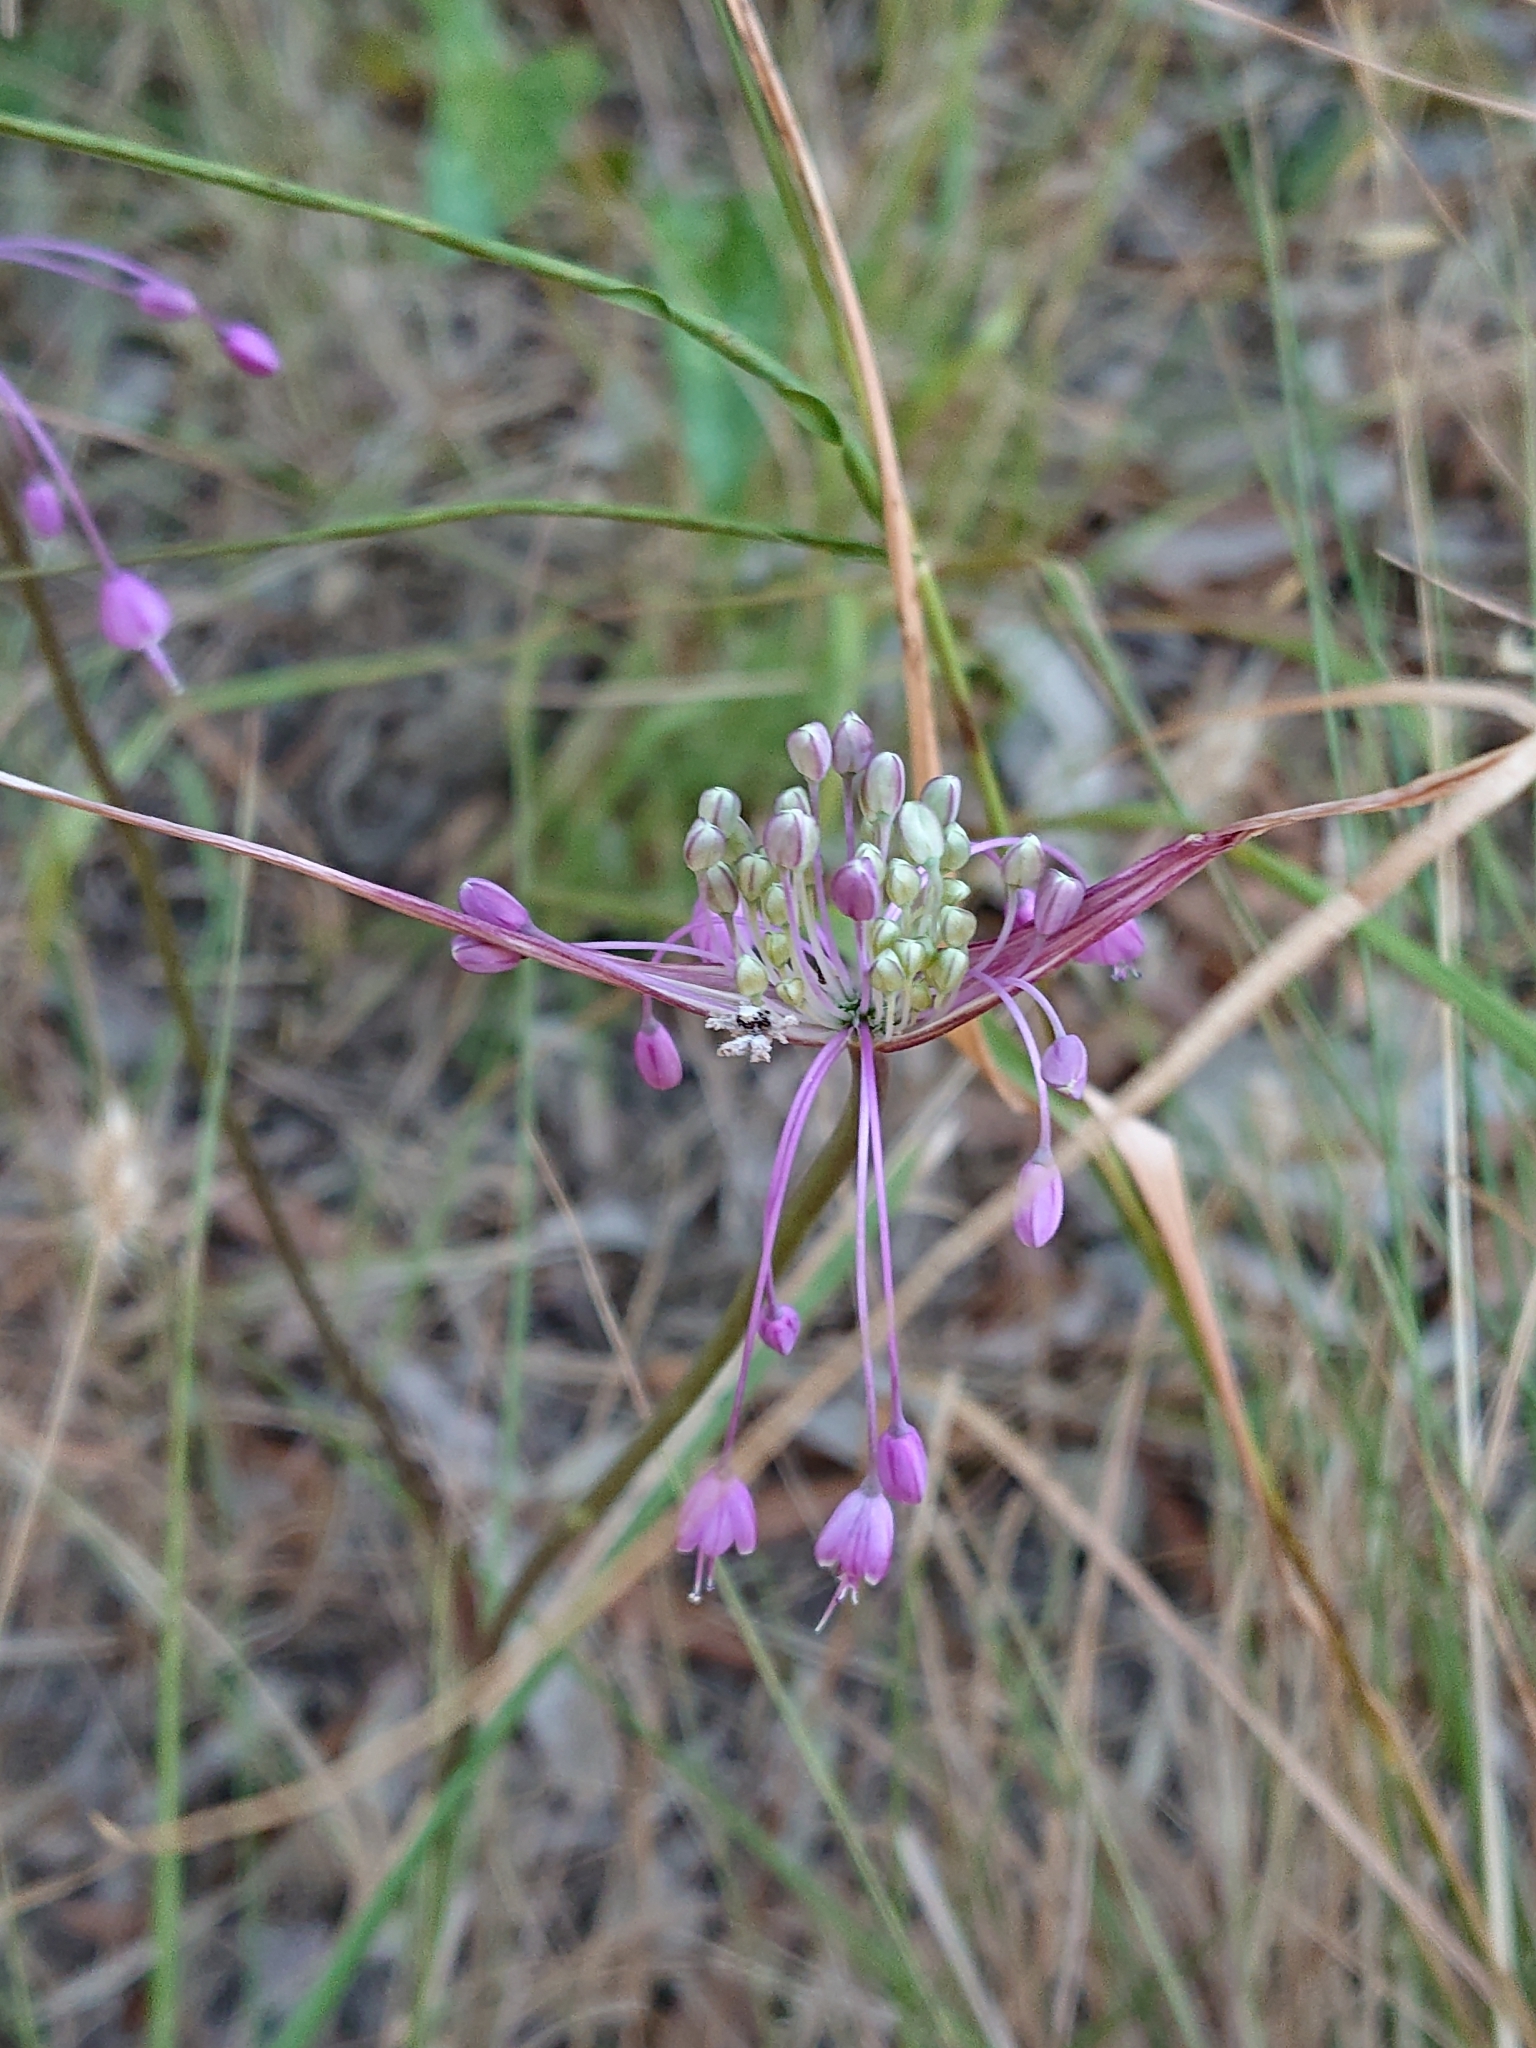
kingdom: Plantae
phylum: Tracheophyta
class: Liliopsida
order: Asparagales
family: Amaryllidaceae
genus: Allium
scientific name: Allium carinatum
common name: Keeled garlic
